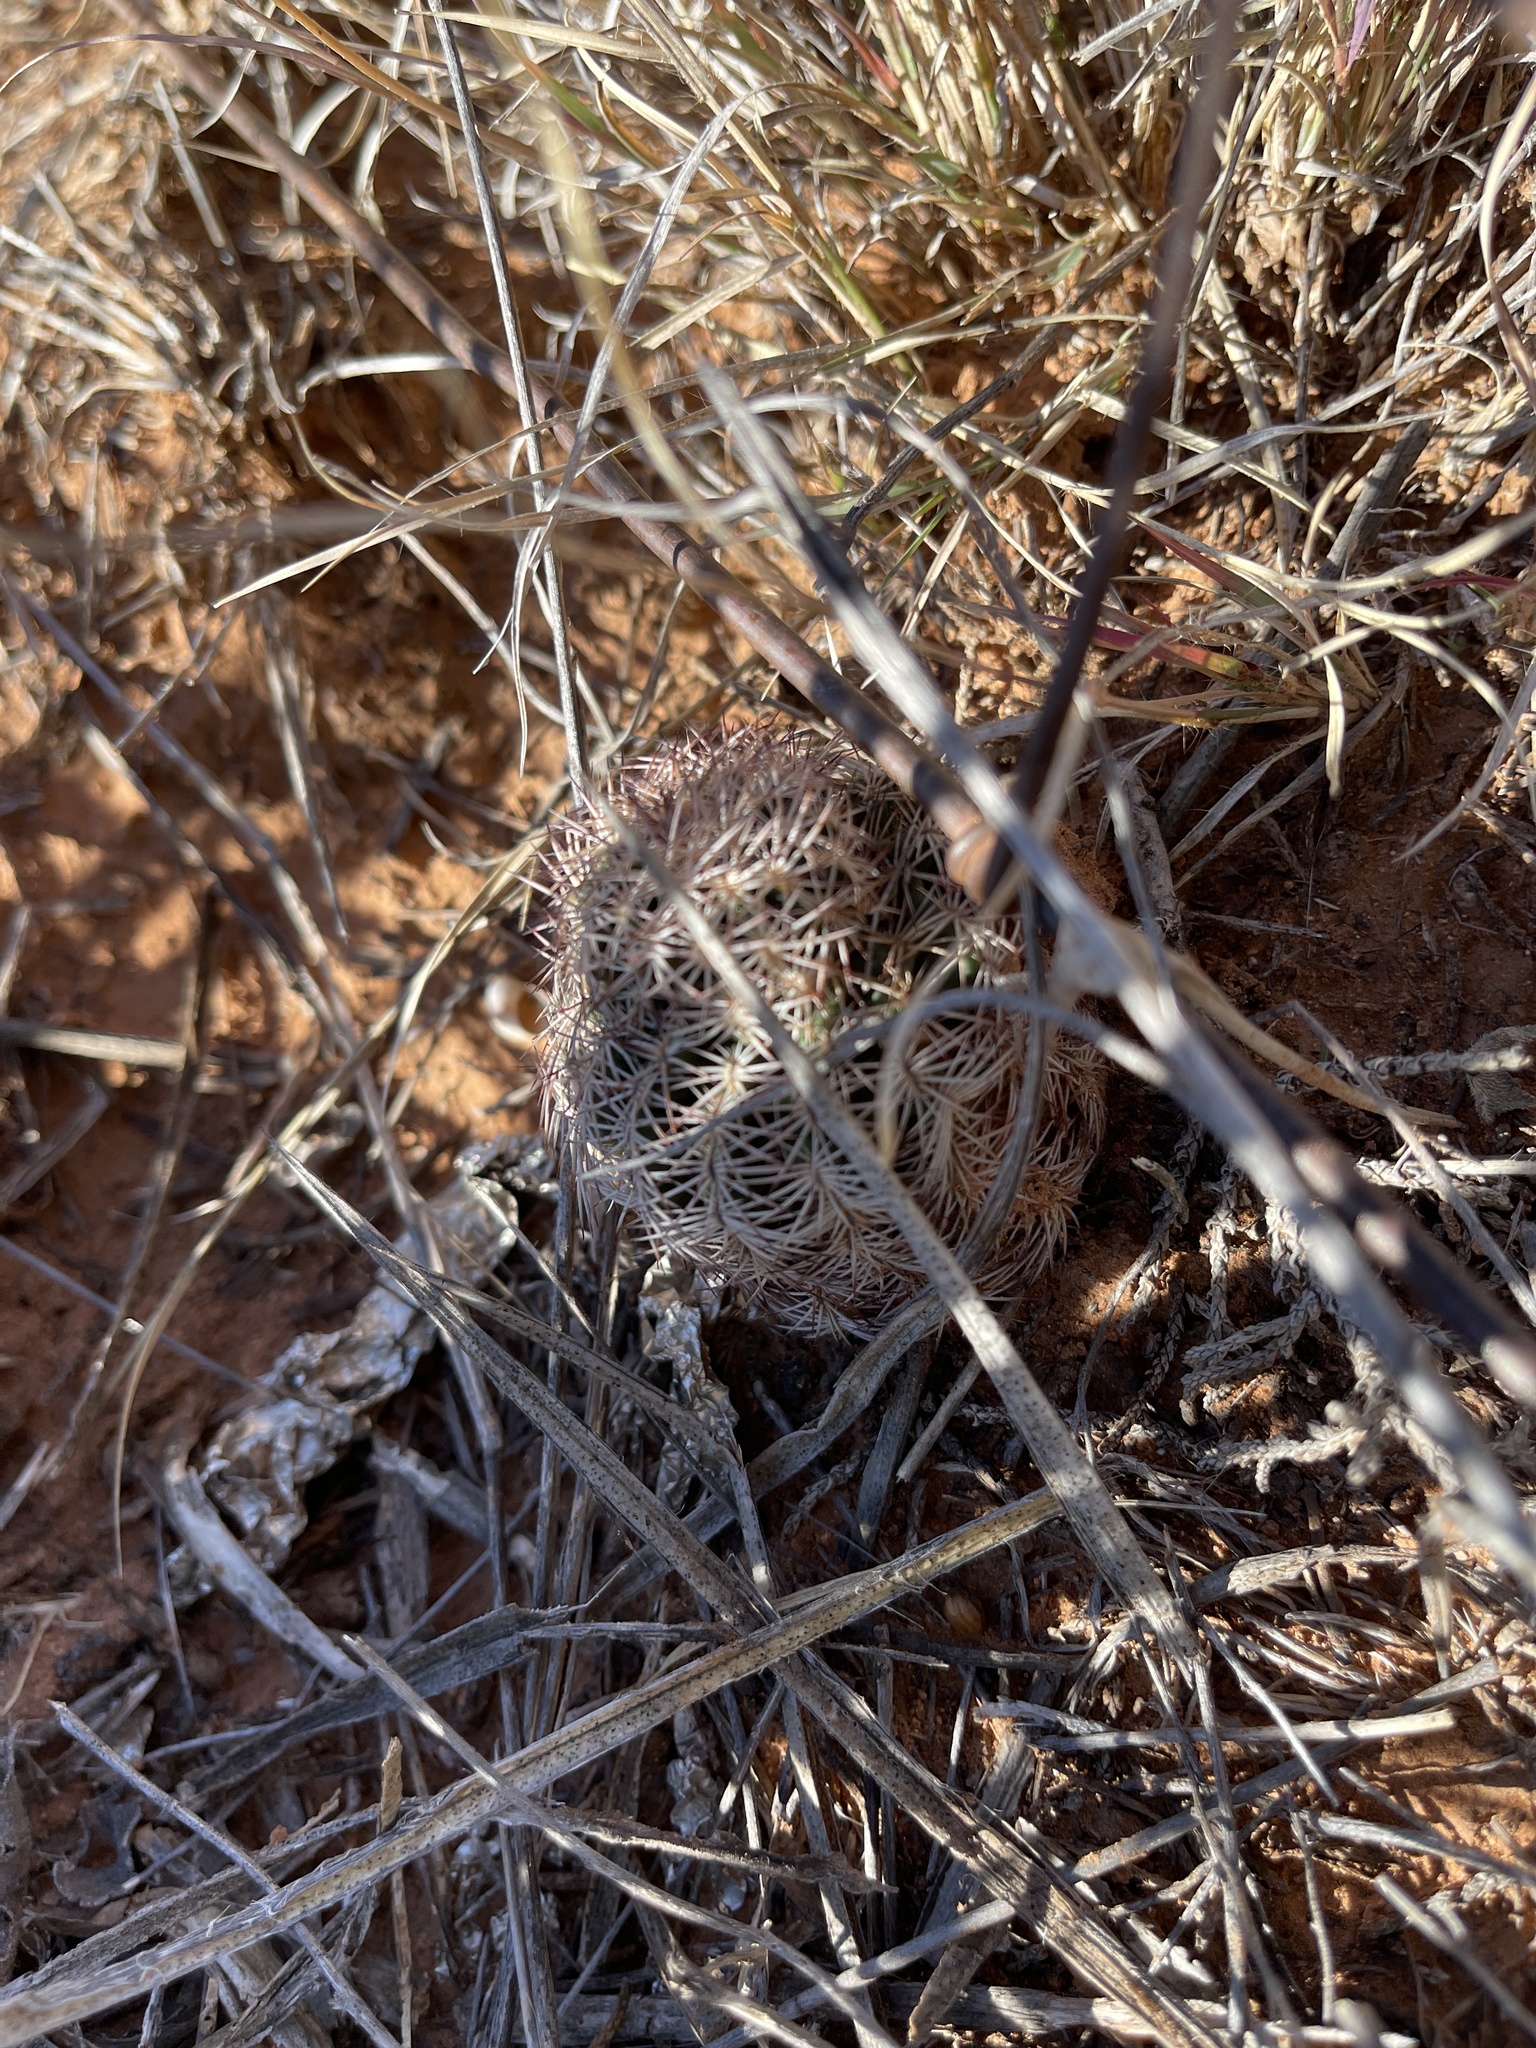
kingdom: Plantae
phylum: Tracheophyta
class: Magnoliopsida
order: Caryophyllales
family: Cactaceae
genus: Echinocereus
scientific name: Echinocereus reichenbachii
